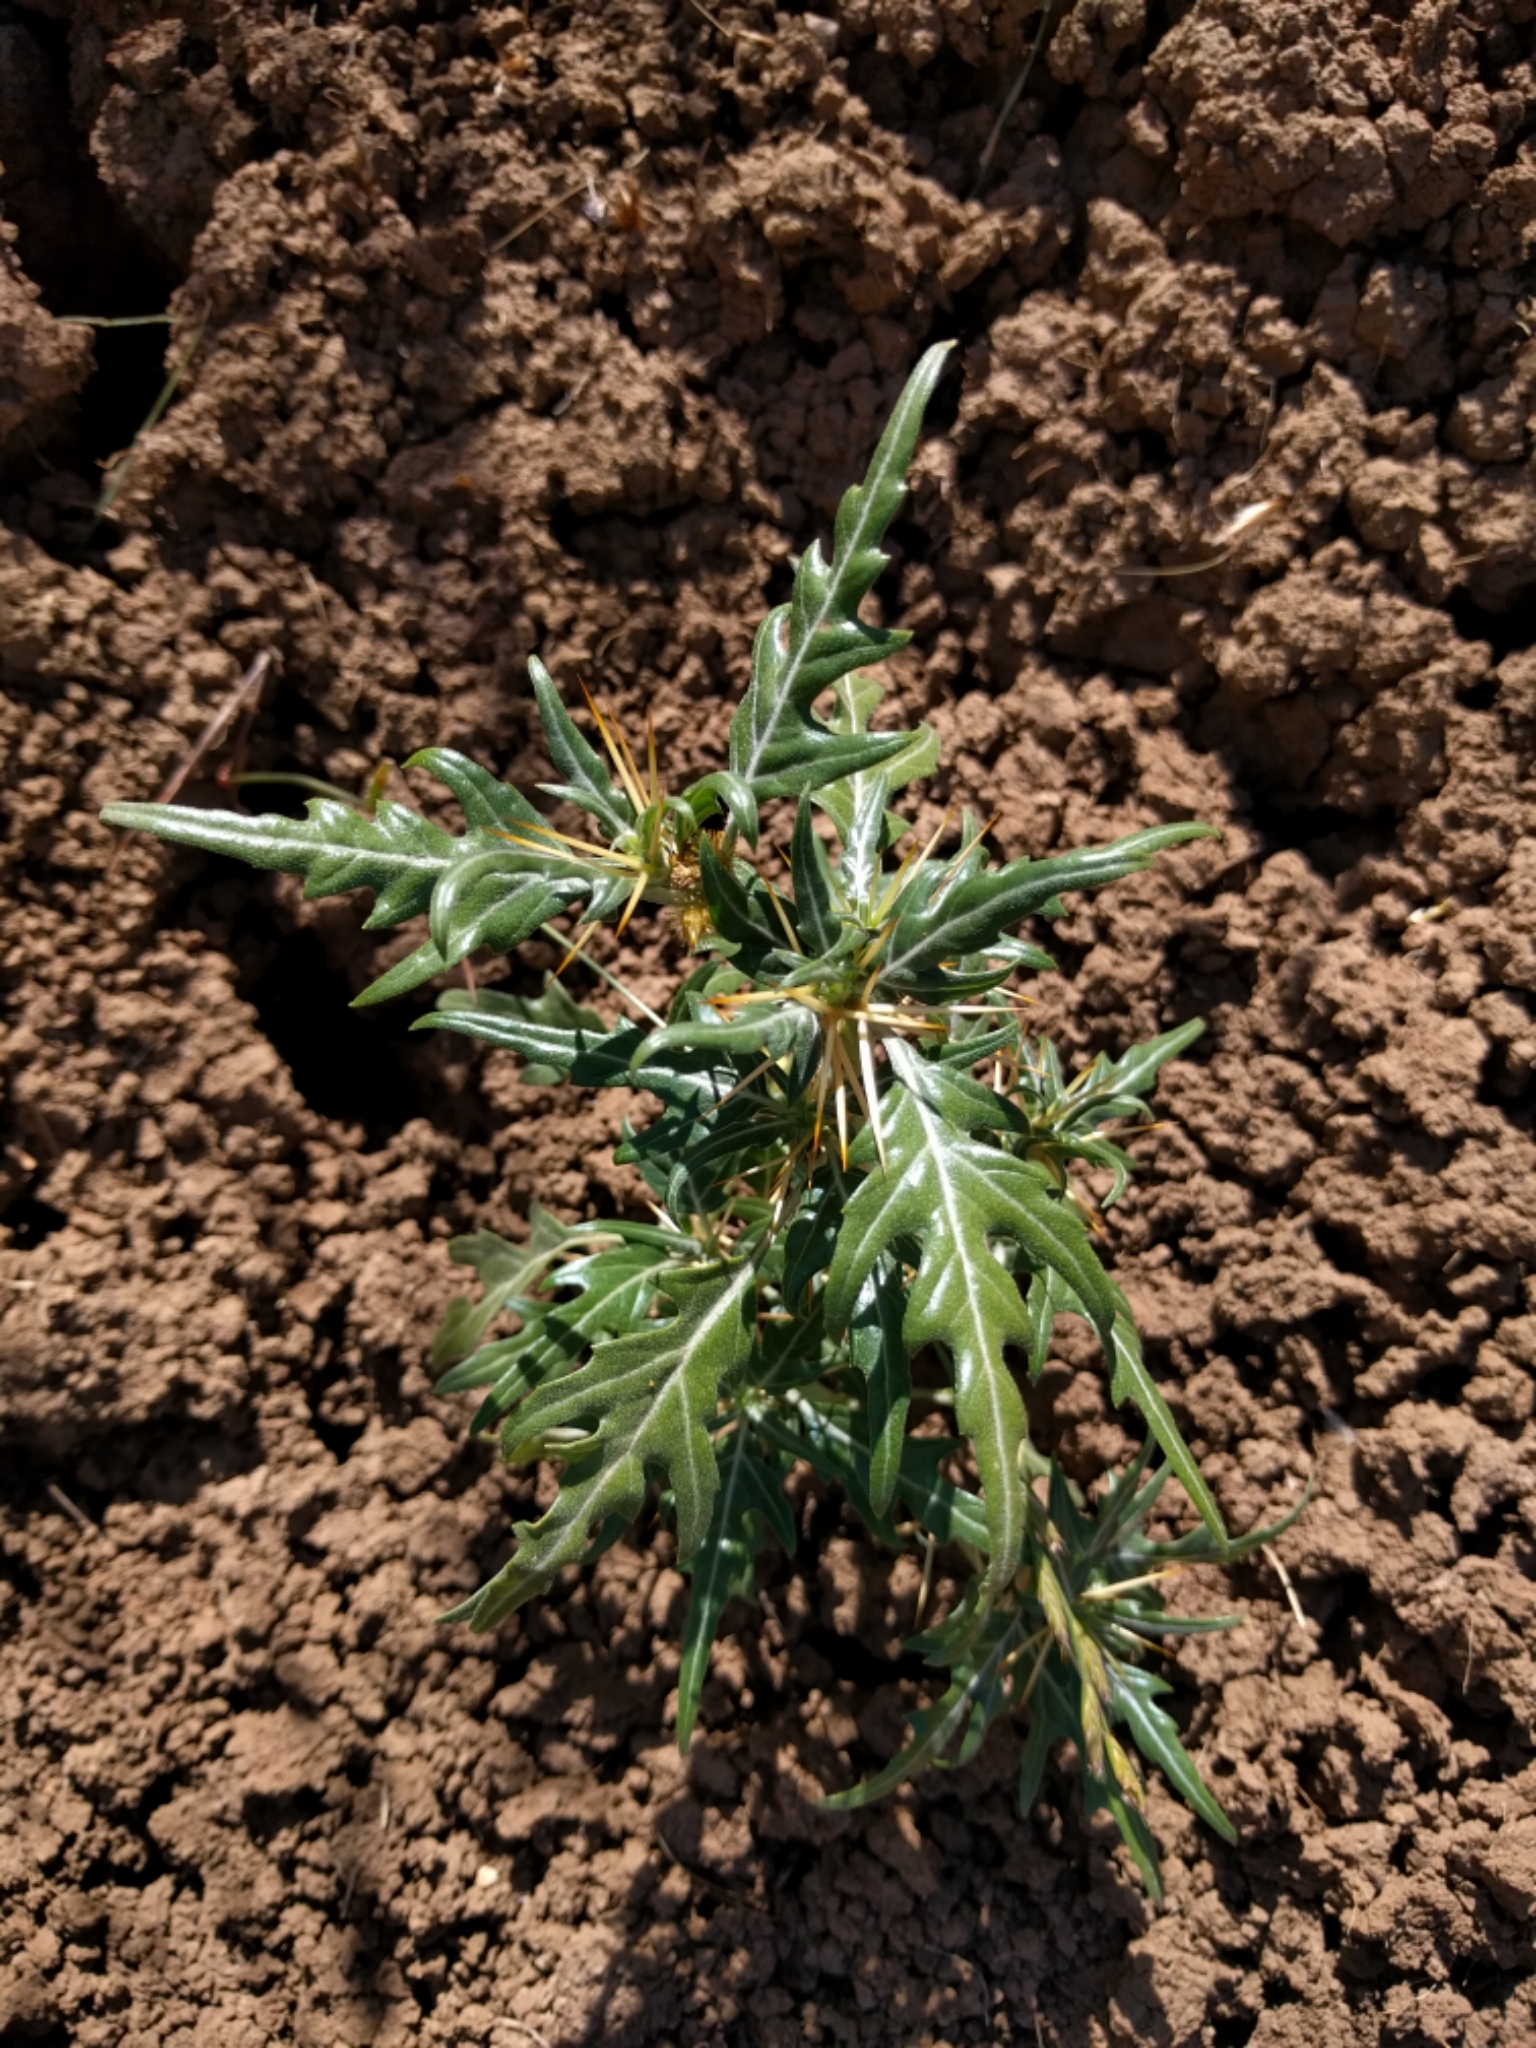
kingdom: Plantae
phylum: Tracheophyta
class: Magnoliopsida
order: Asterales
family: Asteraceae
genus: Xanthium
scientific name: Xanthium spinosum
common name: Spiny cocklebur
